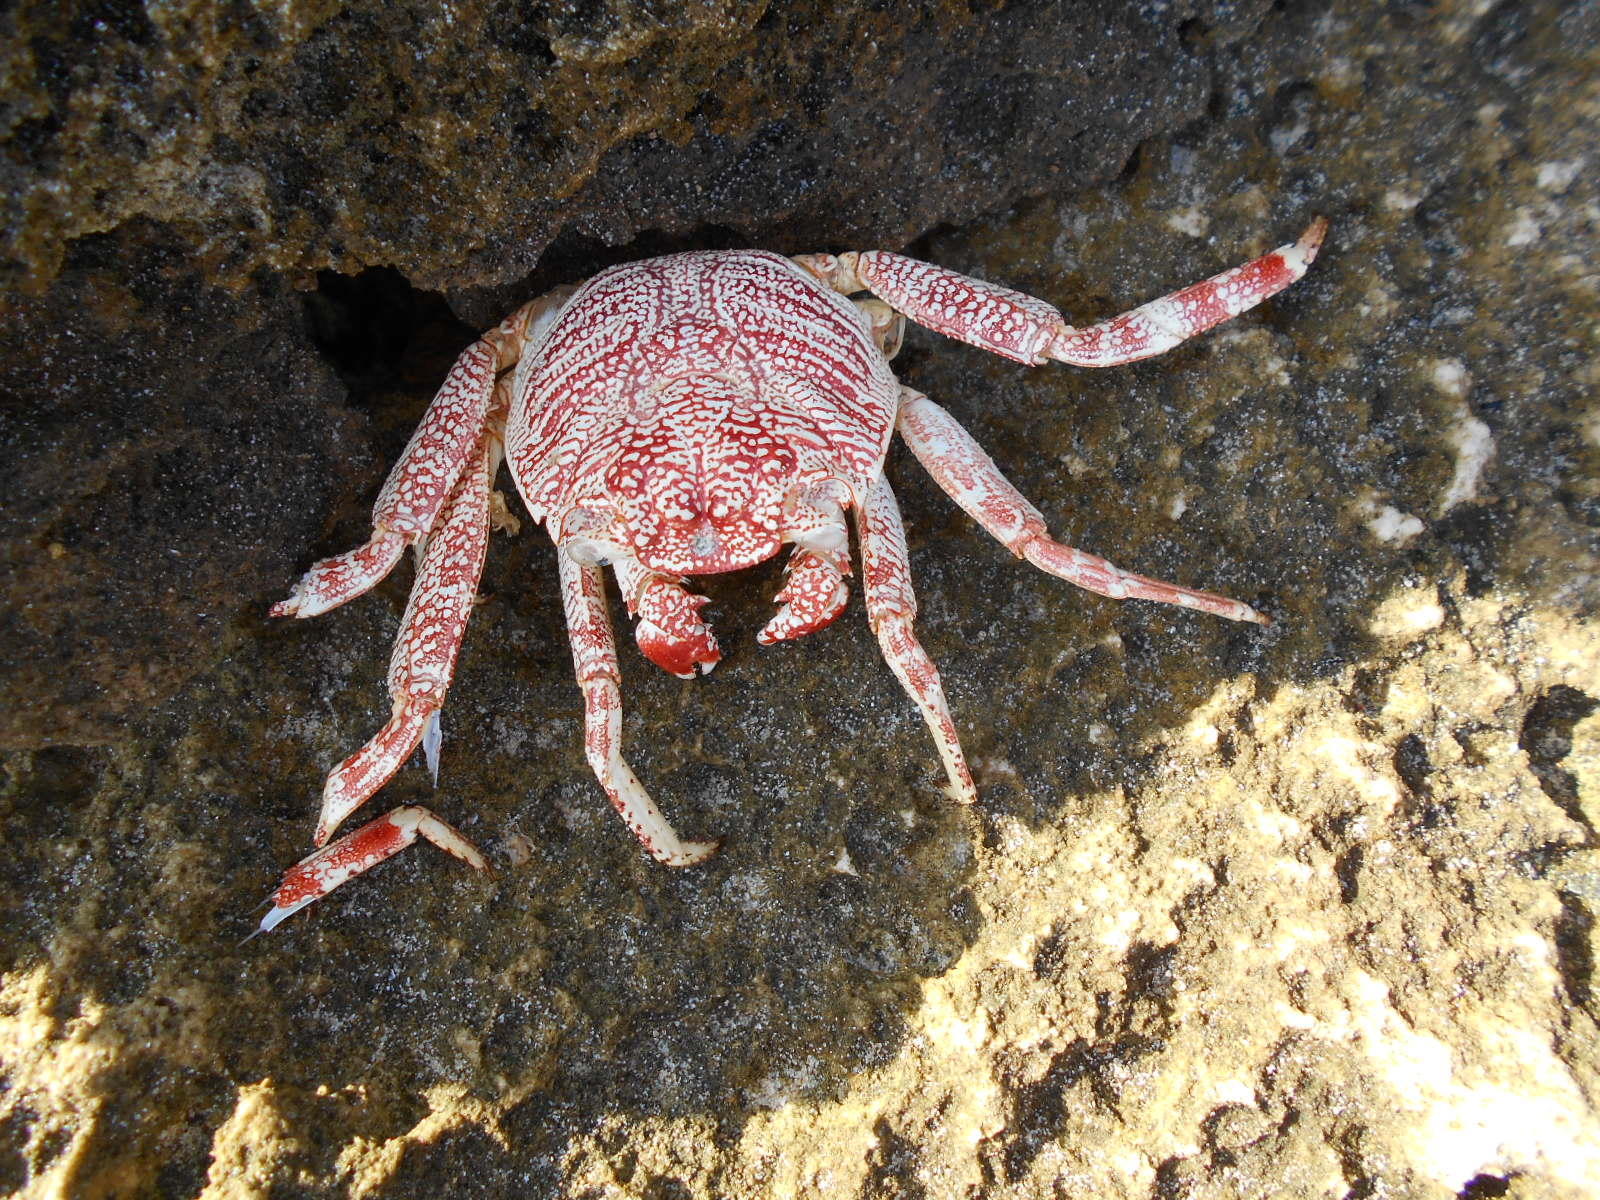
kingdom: Animalia
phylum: Chordata
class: Aves
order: Passeriformes
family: Corvidae
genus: Corvus
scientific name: Corvus albus
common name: Pied crow
